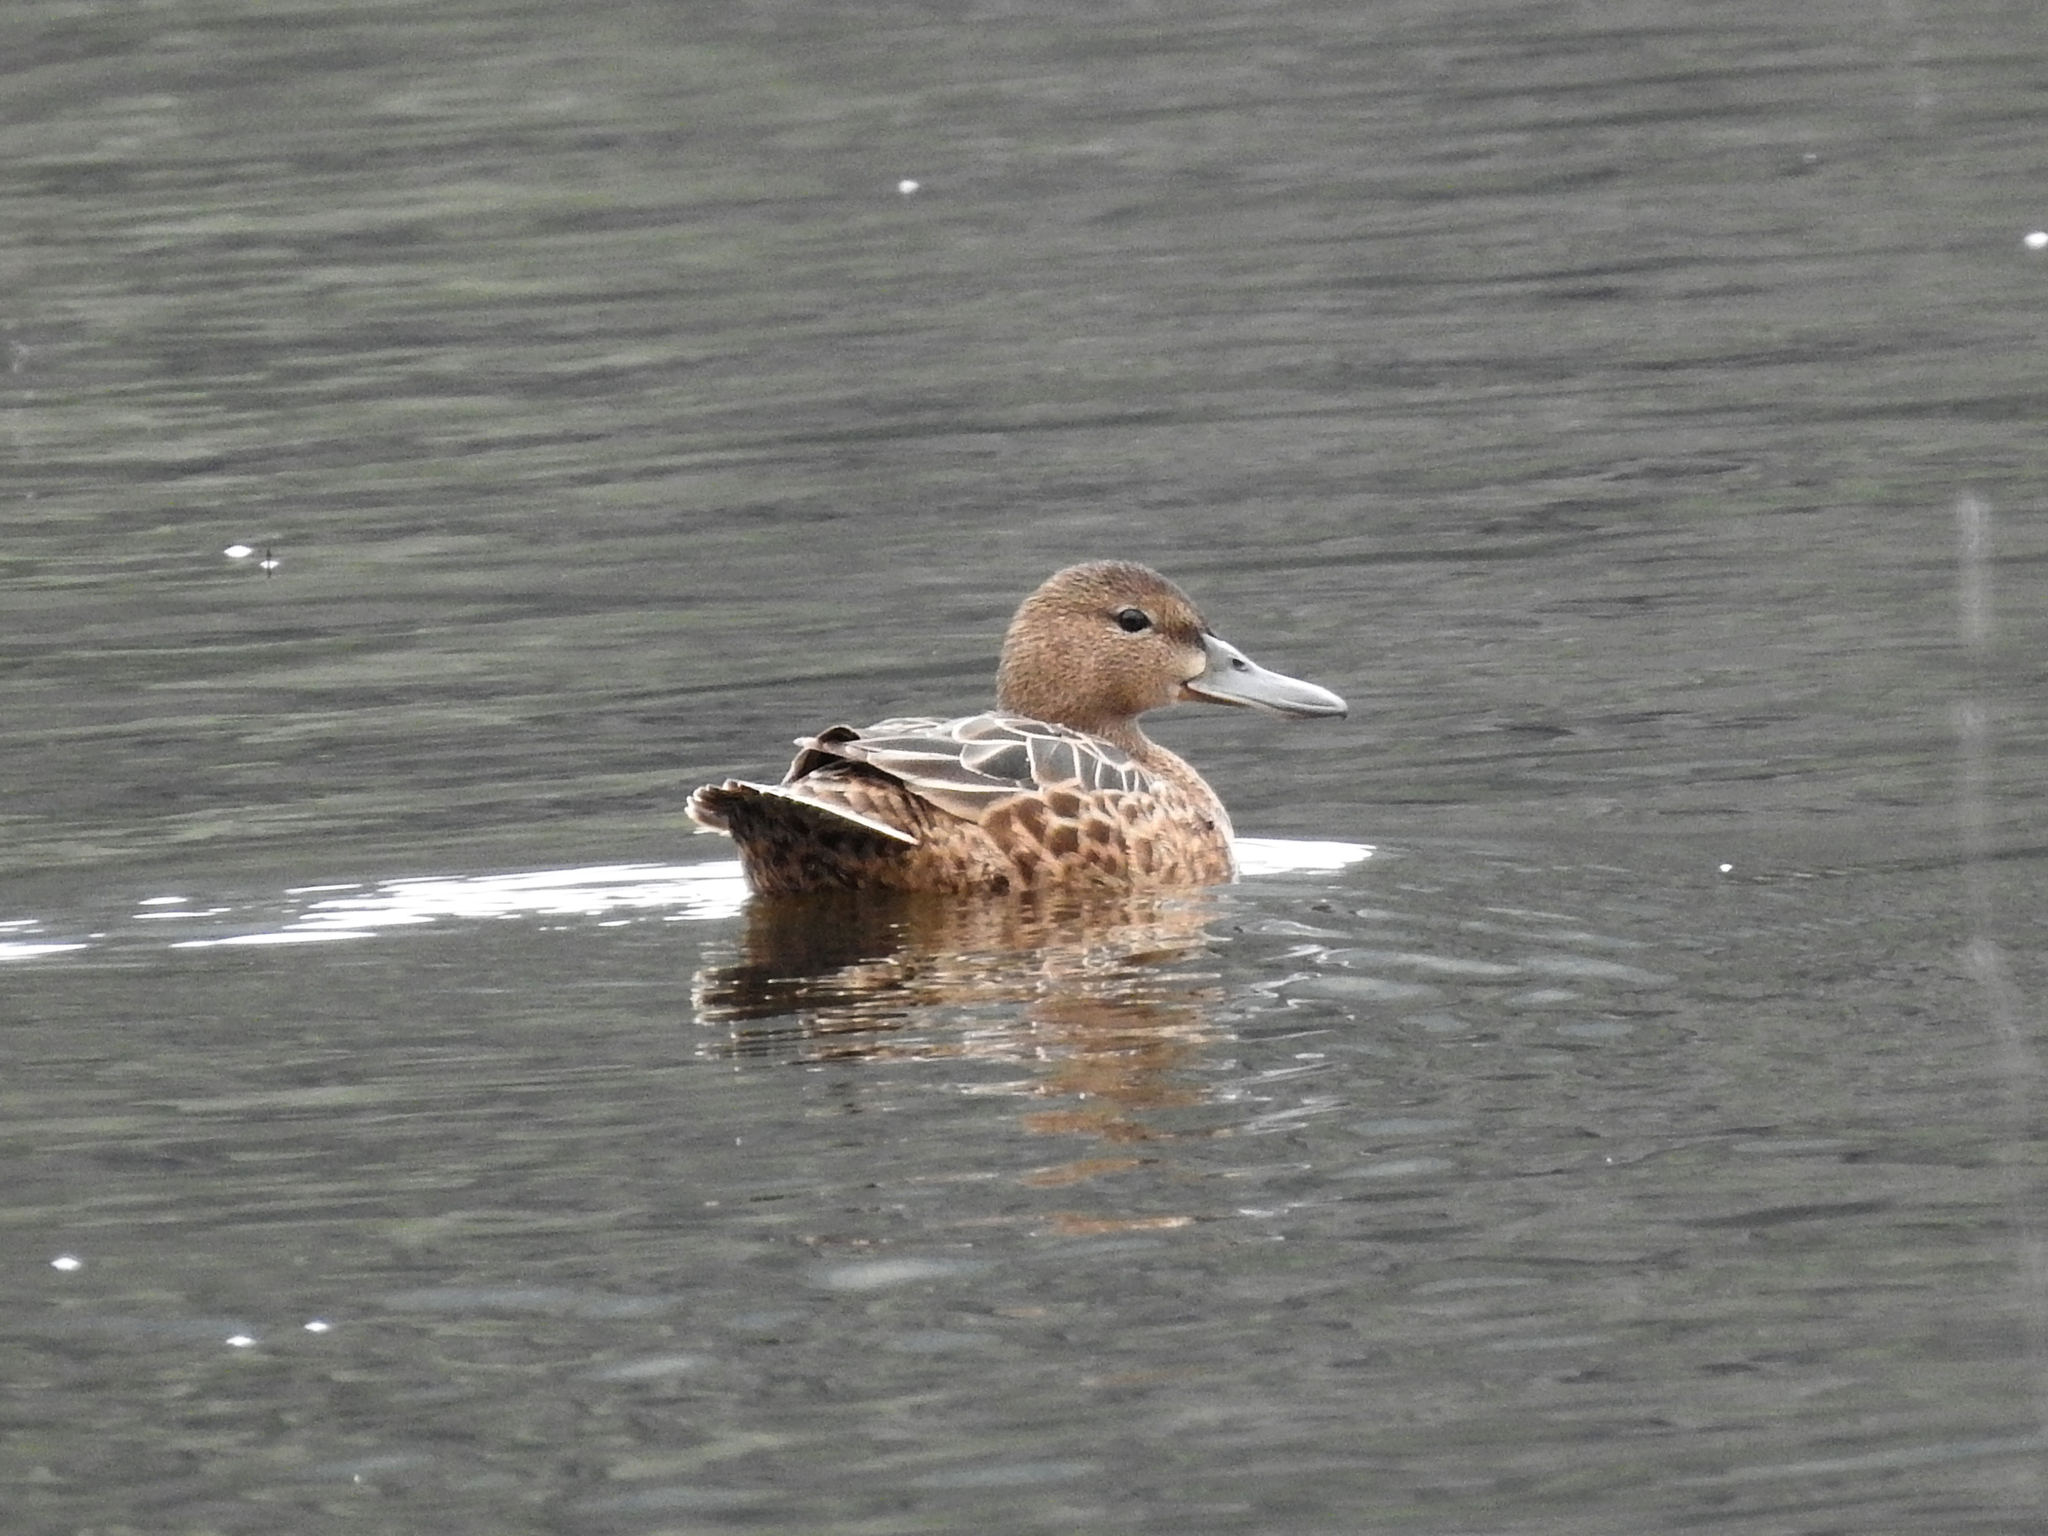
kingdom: Animalia
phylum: Chordata
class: Aves
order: Anseriformes
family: Anatidae
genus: Spatula
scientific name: Spatula cyanoptera
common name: Cinnamon teal
